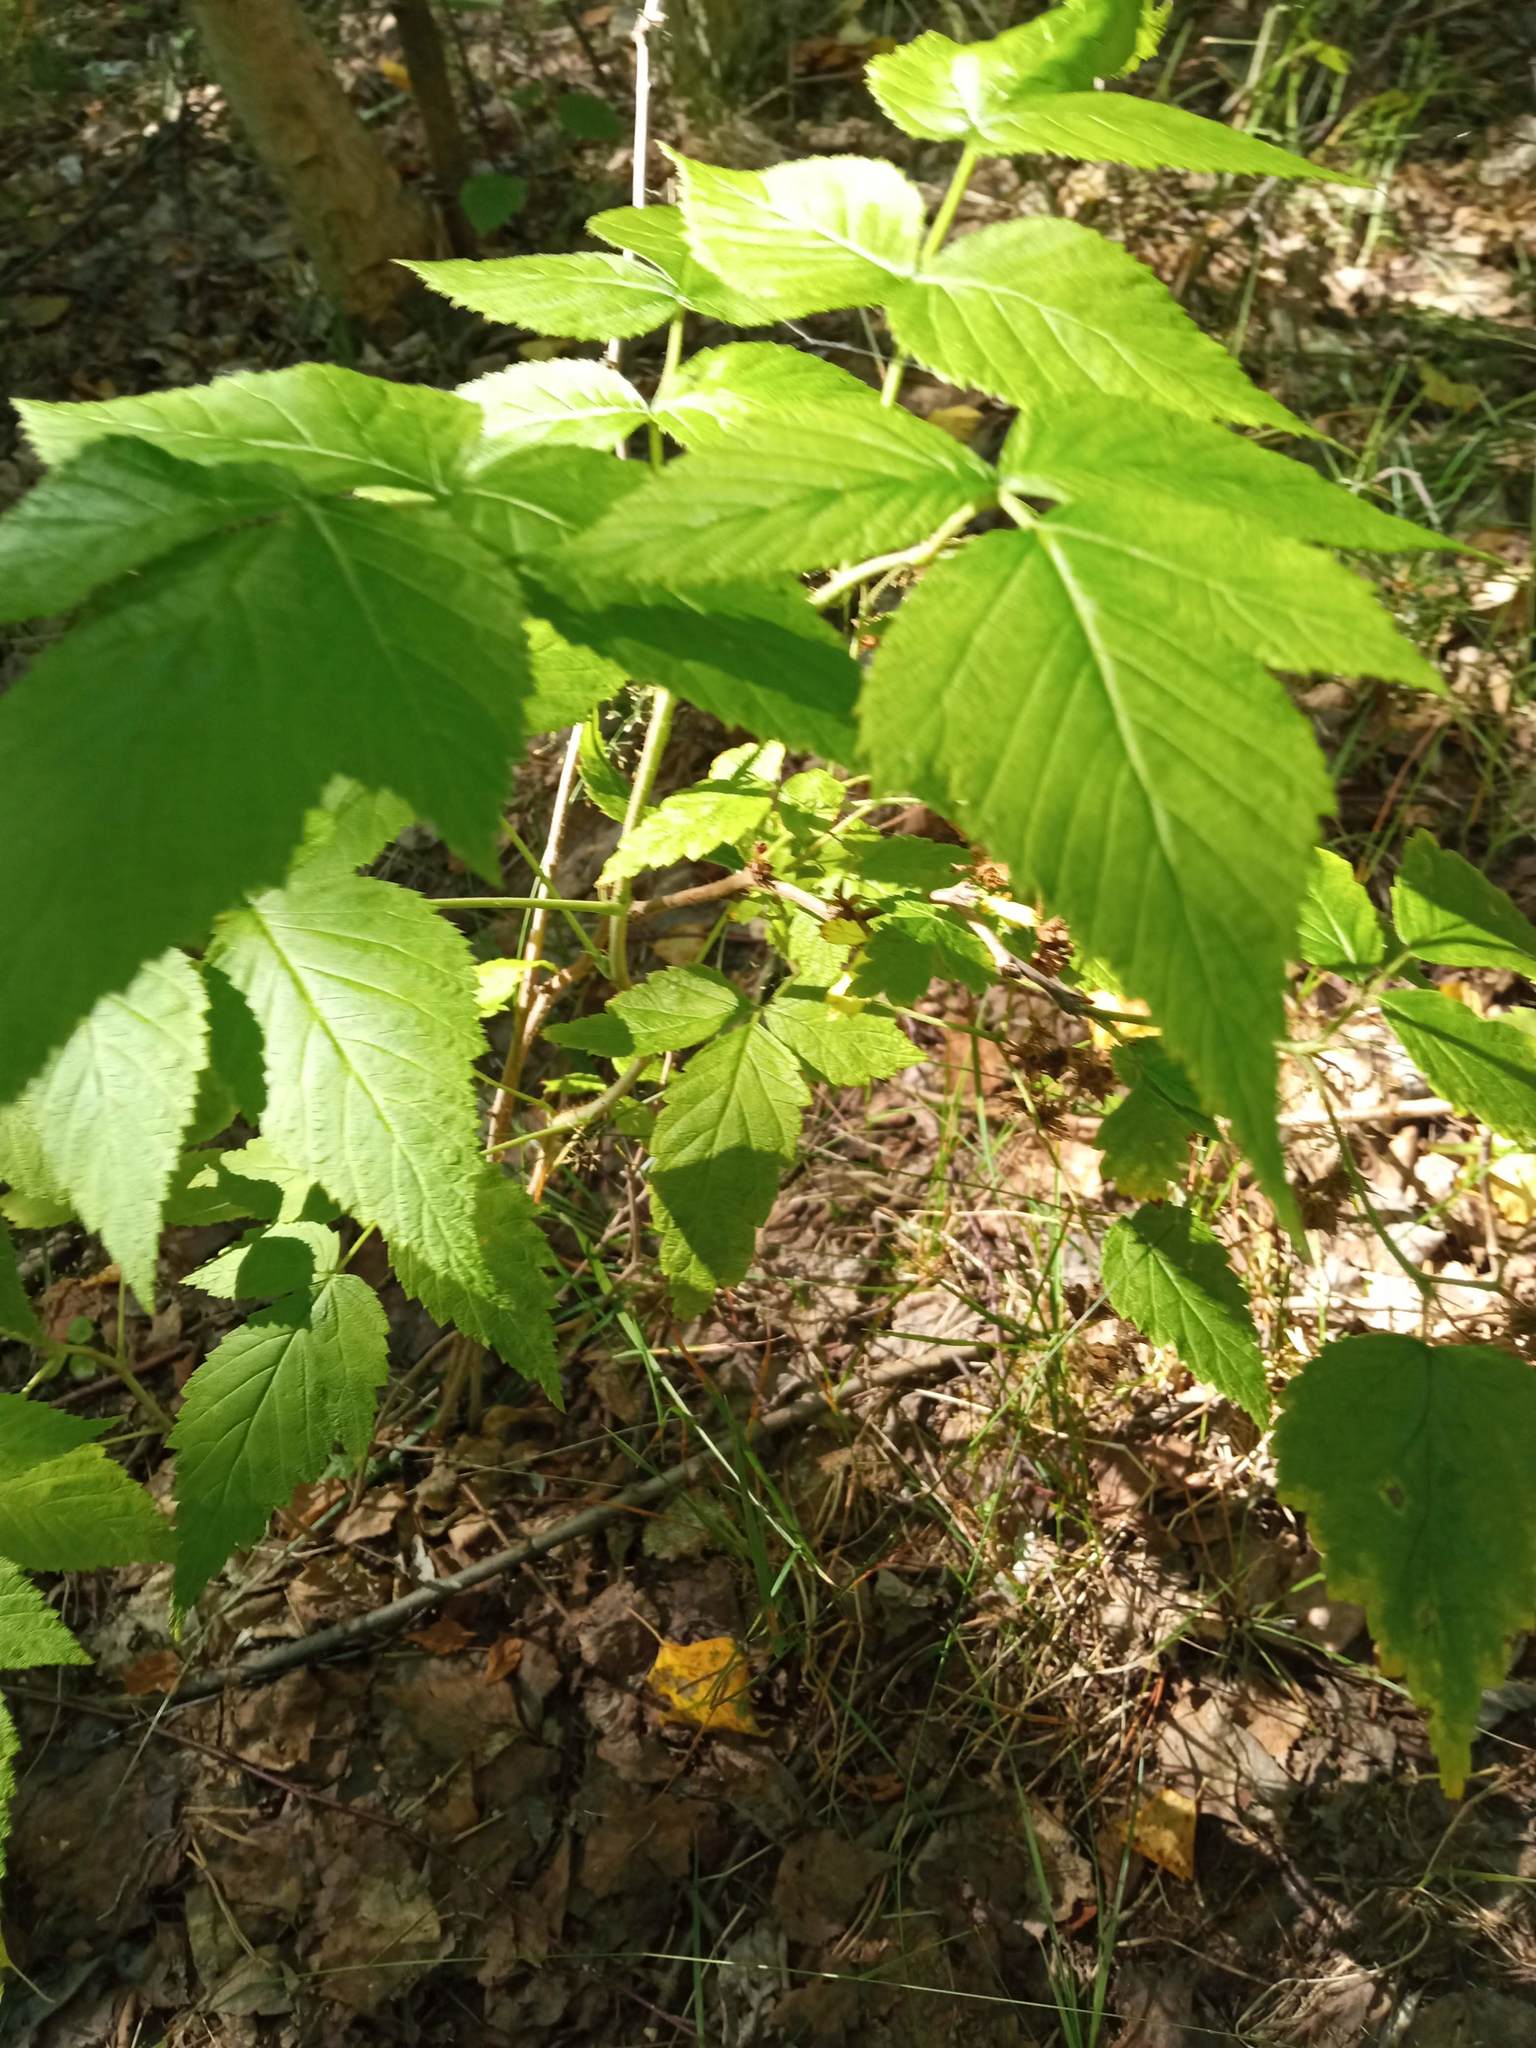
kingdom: Plantae
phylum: Tracheophyta
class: Magnoliopsida
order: Rosales
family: Rosaceae
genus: Rubus
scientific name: Rubus idaeus
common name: Raspberry
